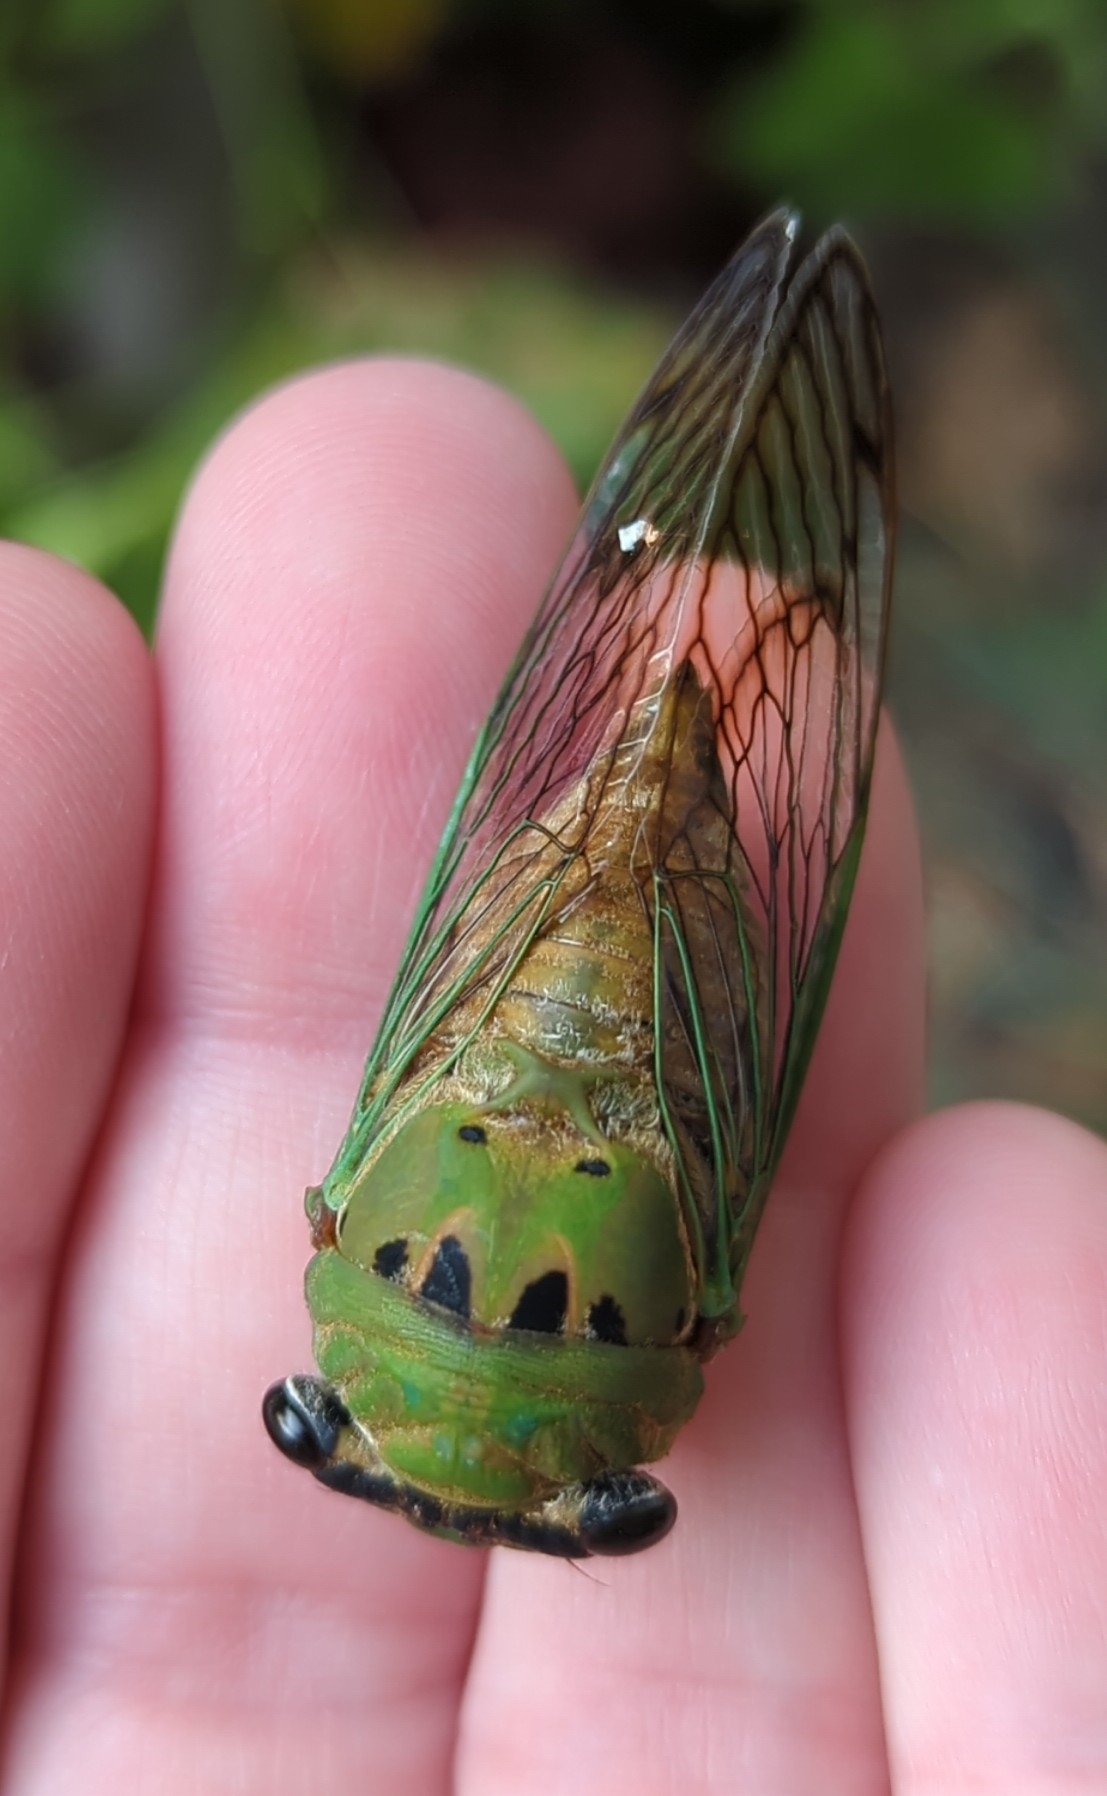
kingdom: Animalia
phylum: Arthropoda
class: Insecta
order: Hemiptera
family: Cicadidae
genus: Neotibicen
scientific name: Neotibicen superbus
